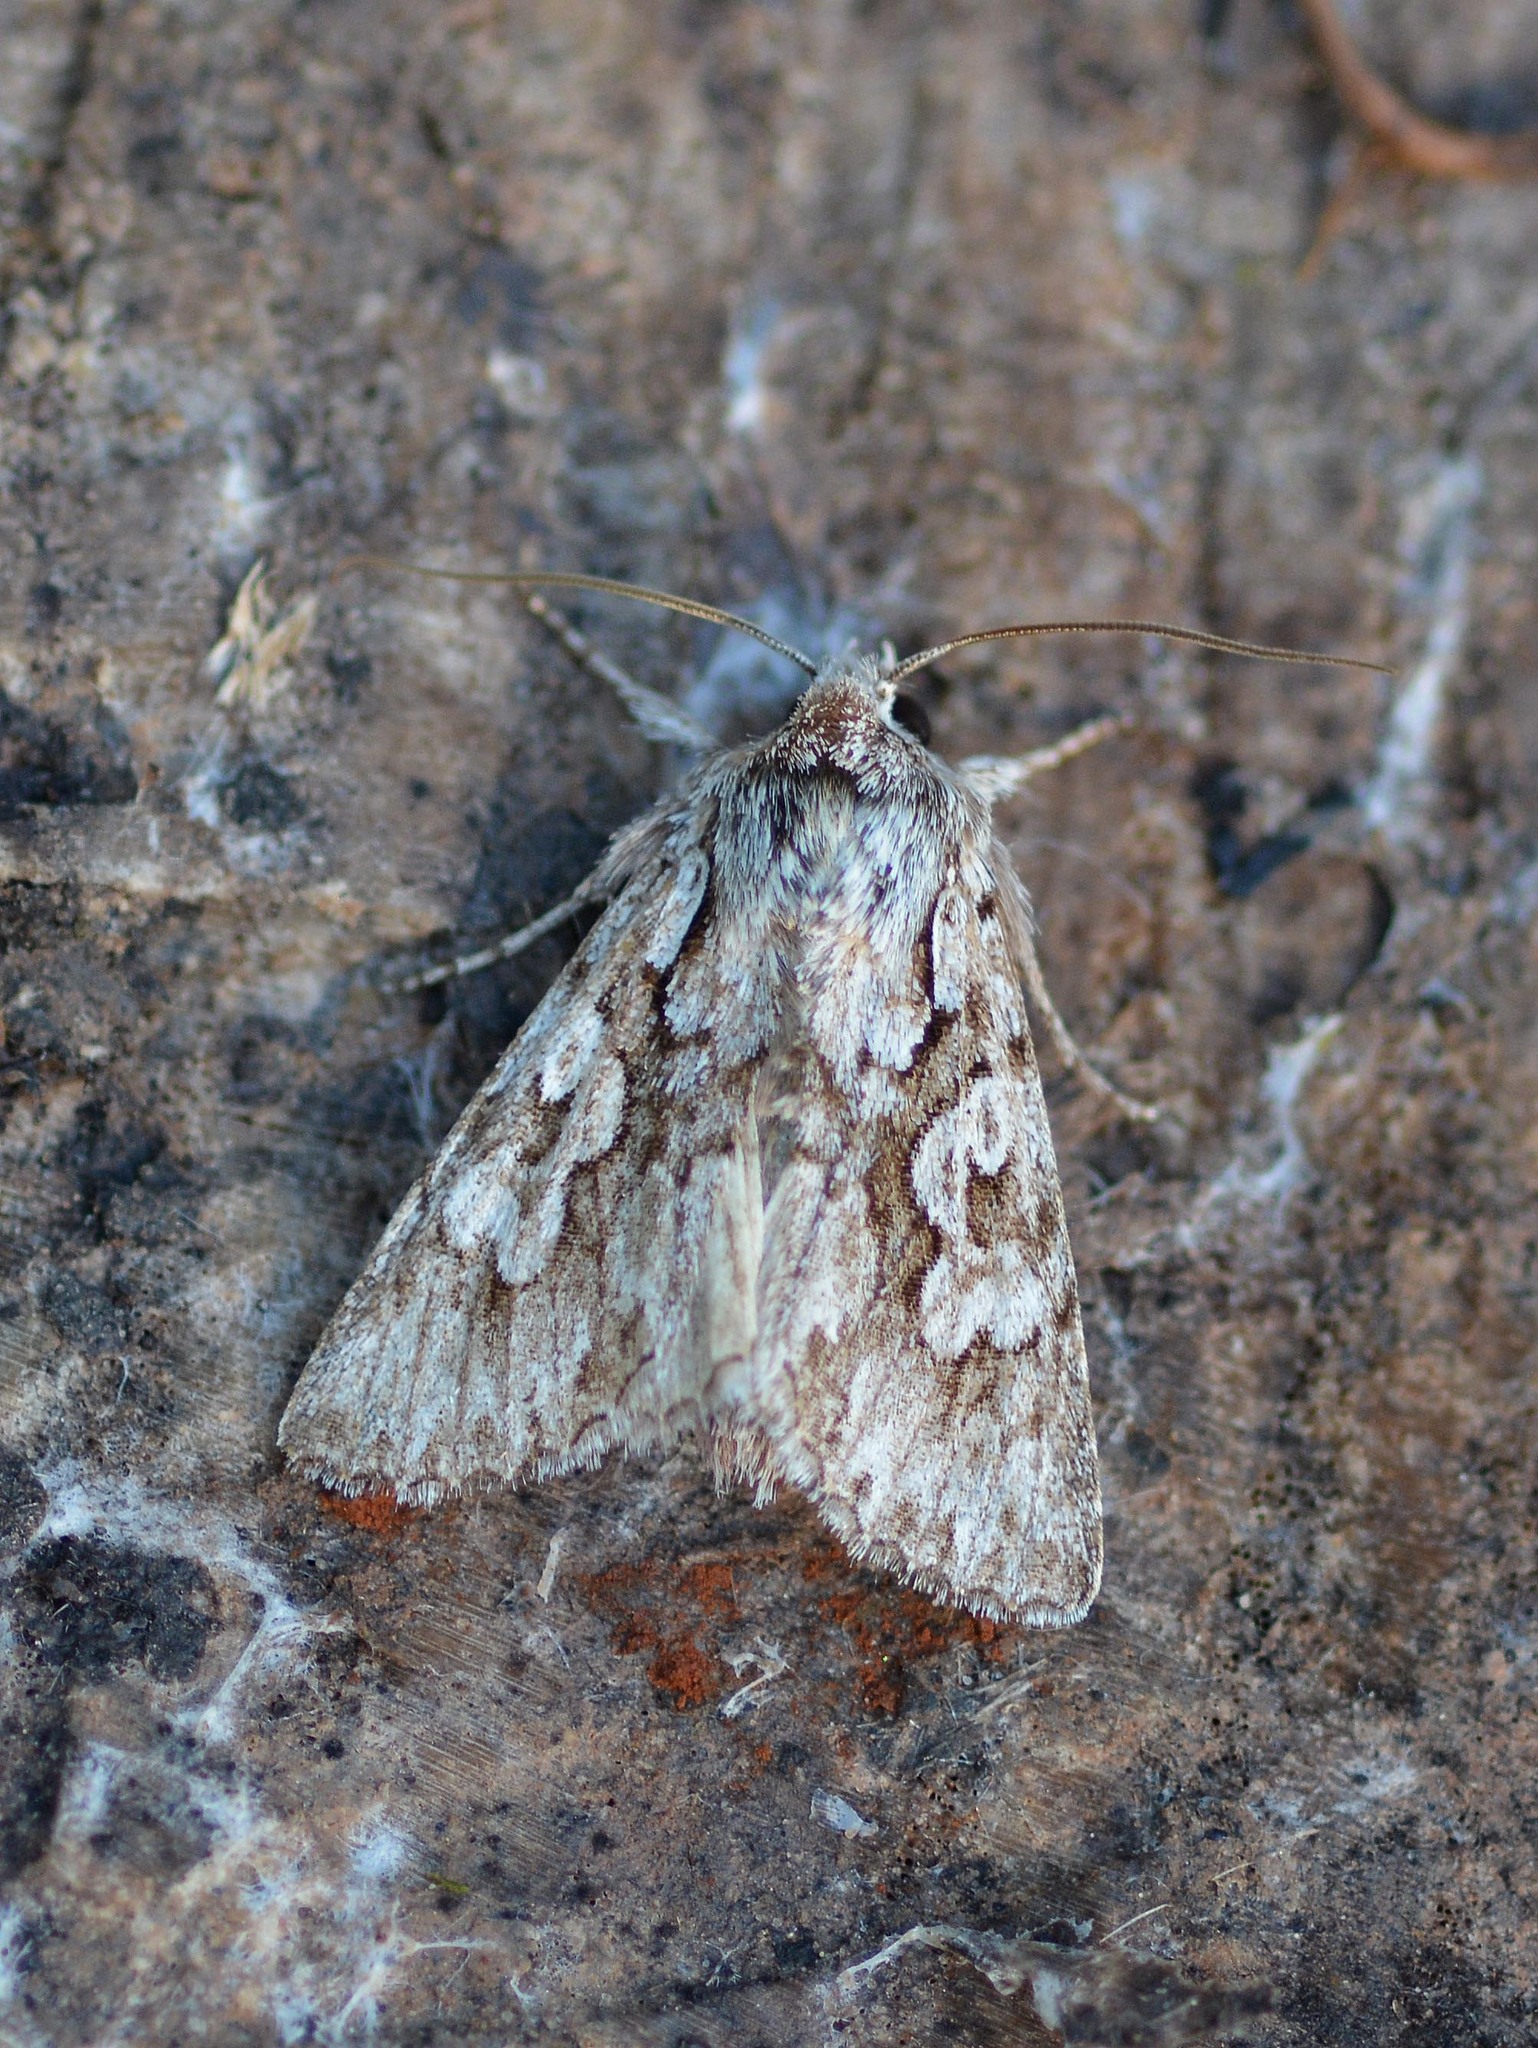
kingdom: Animalia
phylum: Arthropoda
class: Insecta
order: Lepidoptera
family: Noctuidae
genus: Xylocampa
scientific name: Xylocampa areola
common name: Early grey
